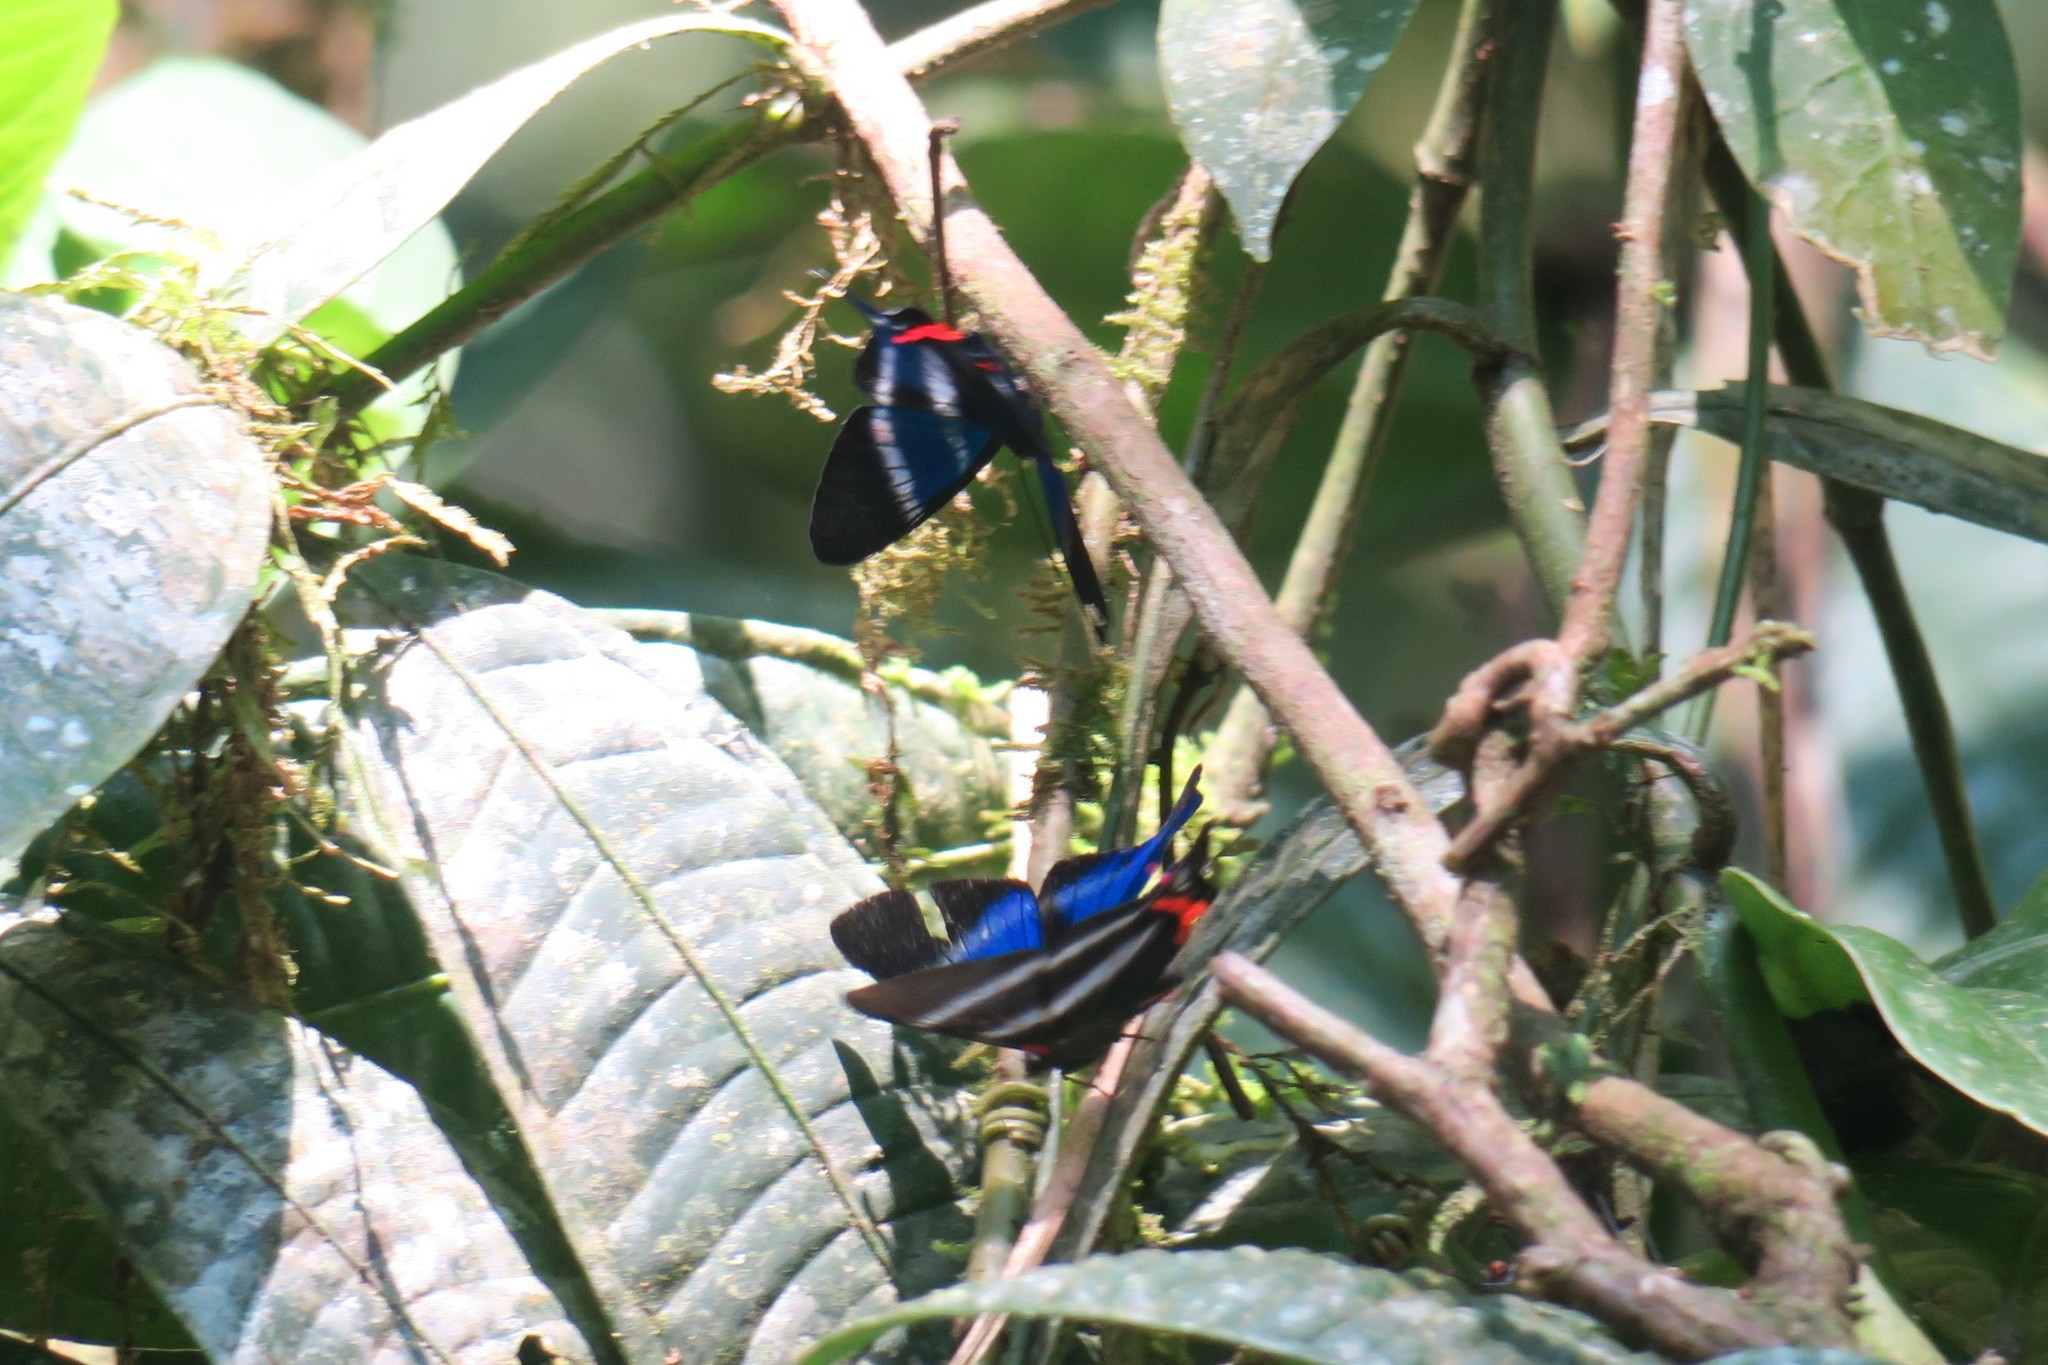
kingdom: Animalia
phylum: Arthropoda
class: Insecta
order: Lepidoptera
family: Riodinidae
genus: Rhetus
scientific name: Rhetus dysonii
